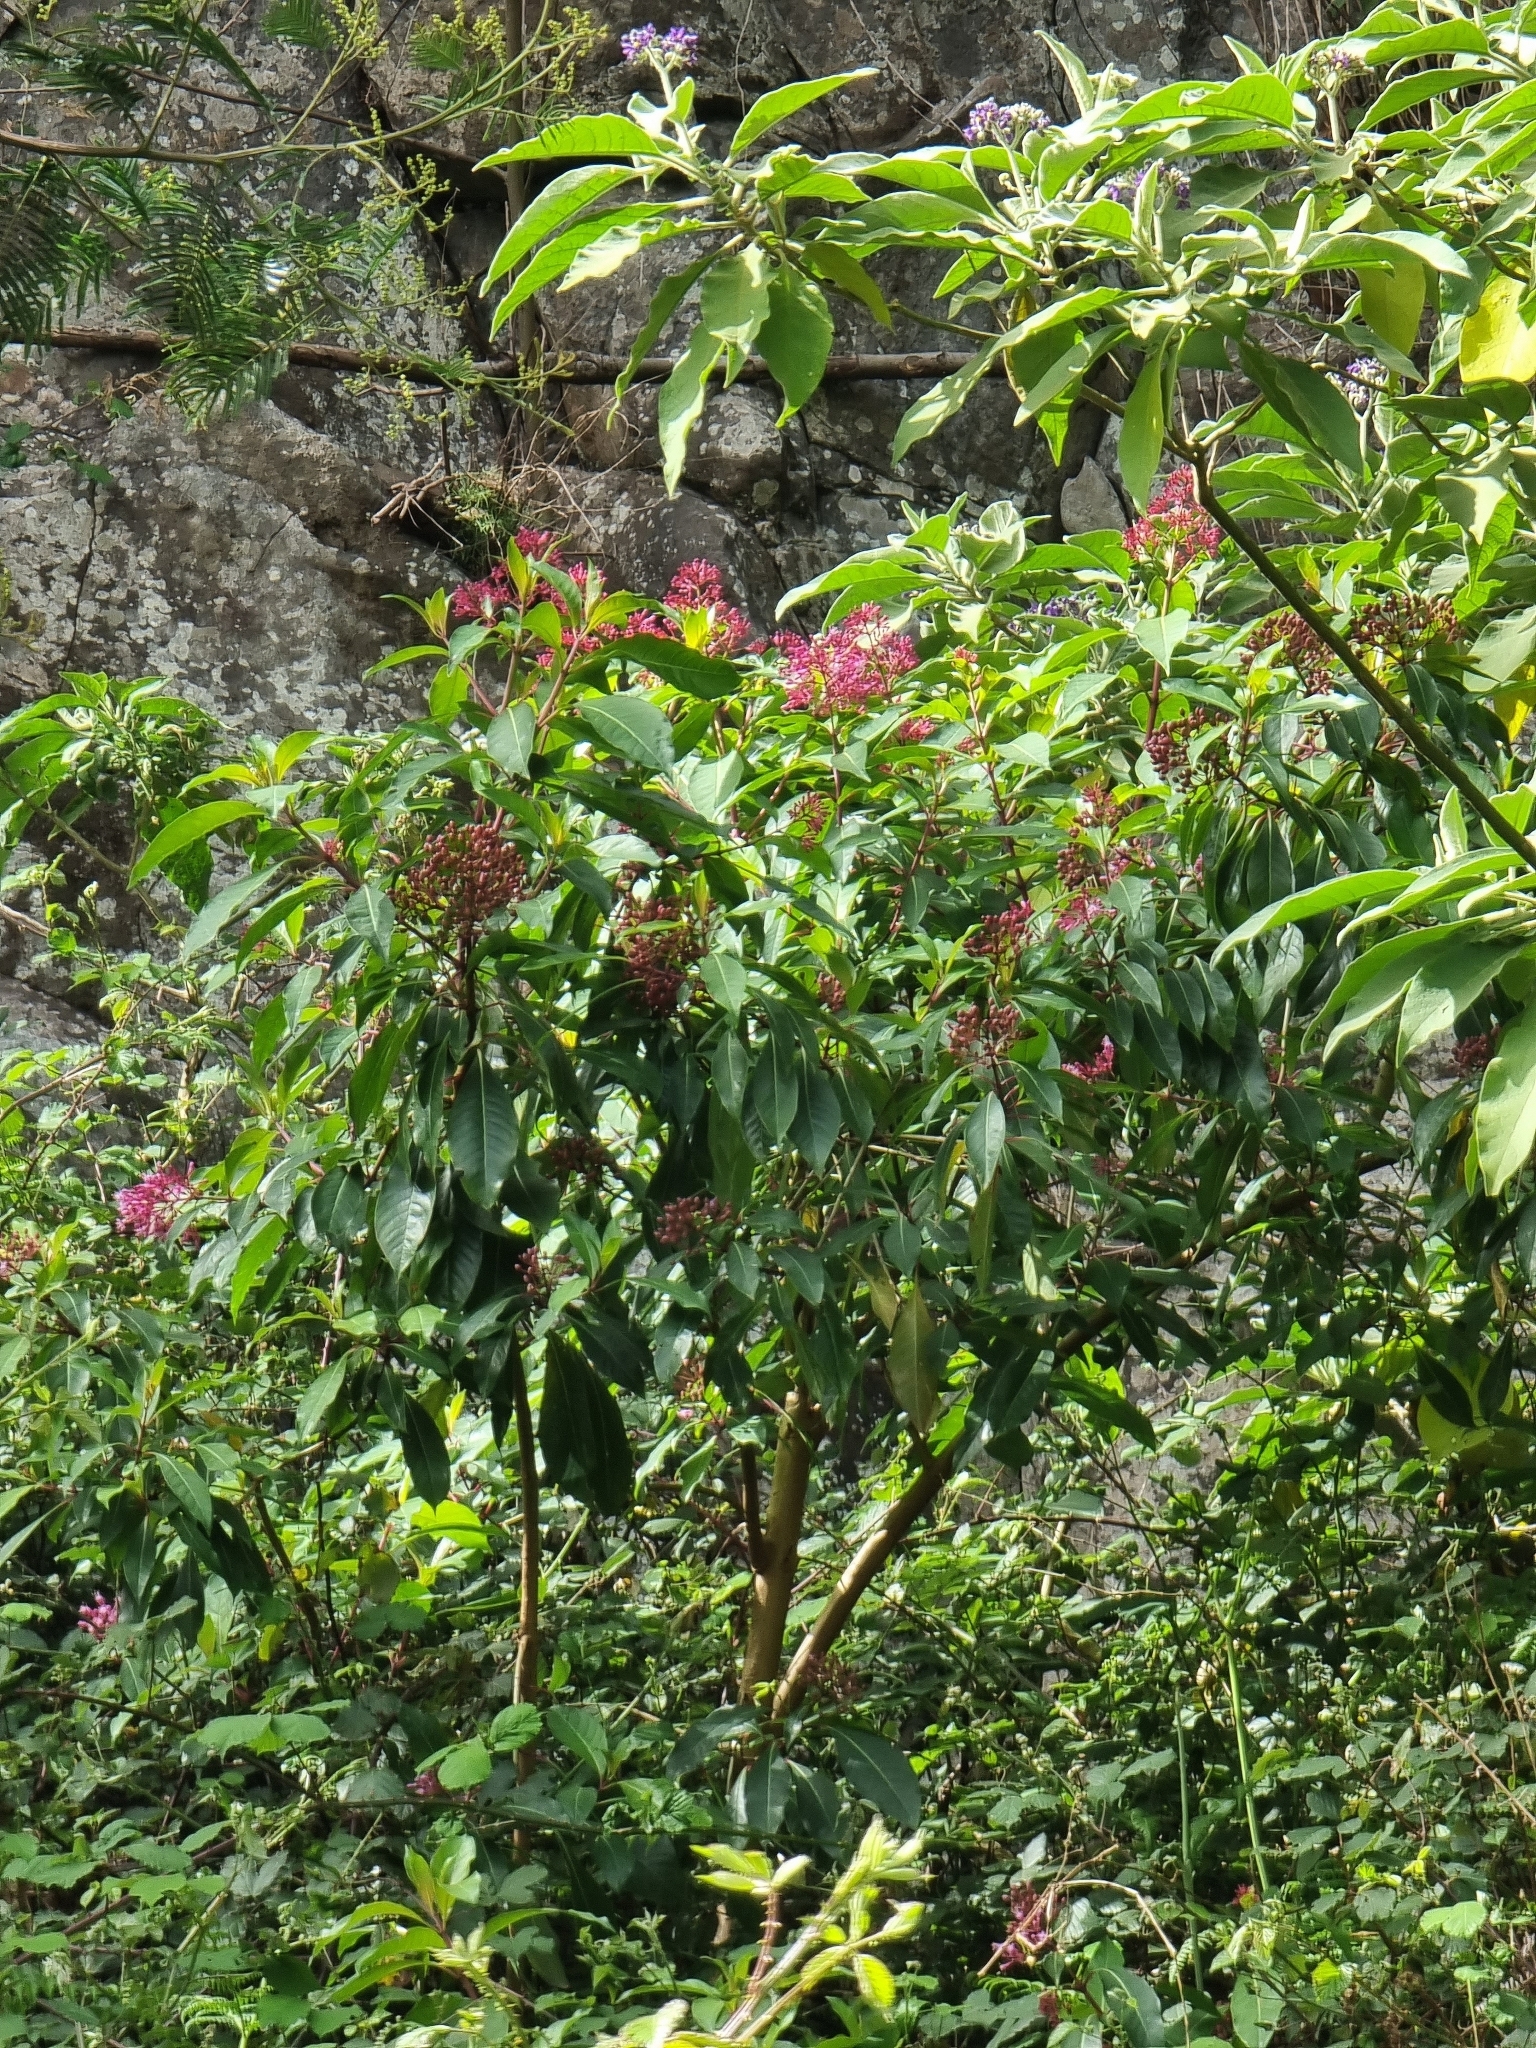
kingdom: Plantae
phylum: Tracheophyta
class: Magnoliopsida
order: Myrtales
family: Onagraceae
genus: Fuchsia
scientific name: Fuchsia arborescens
